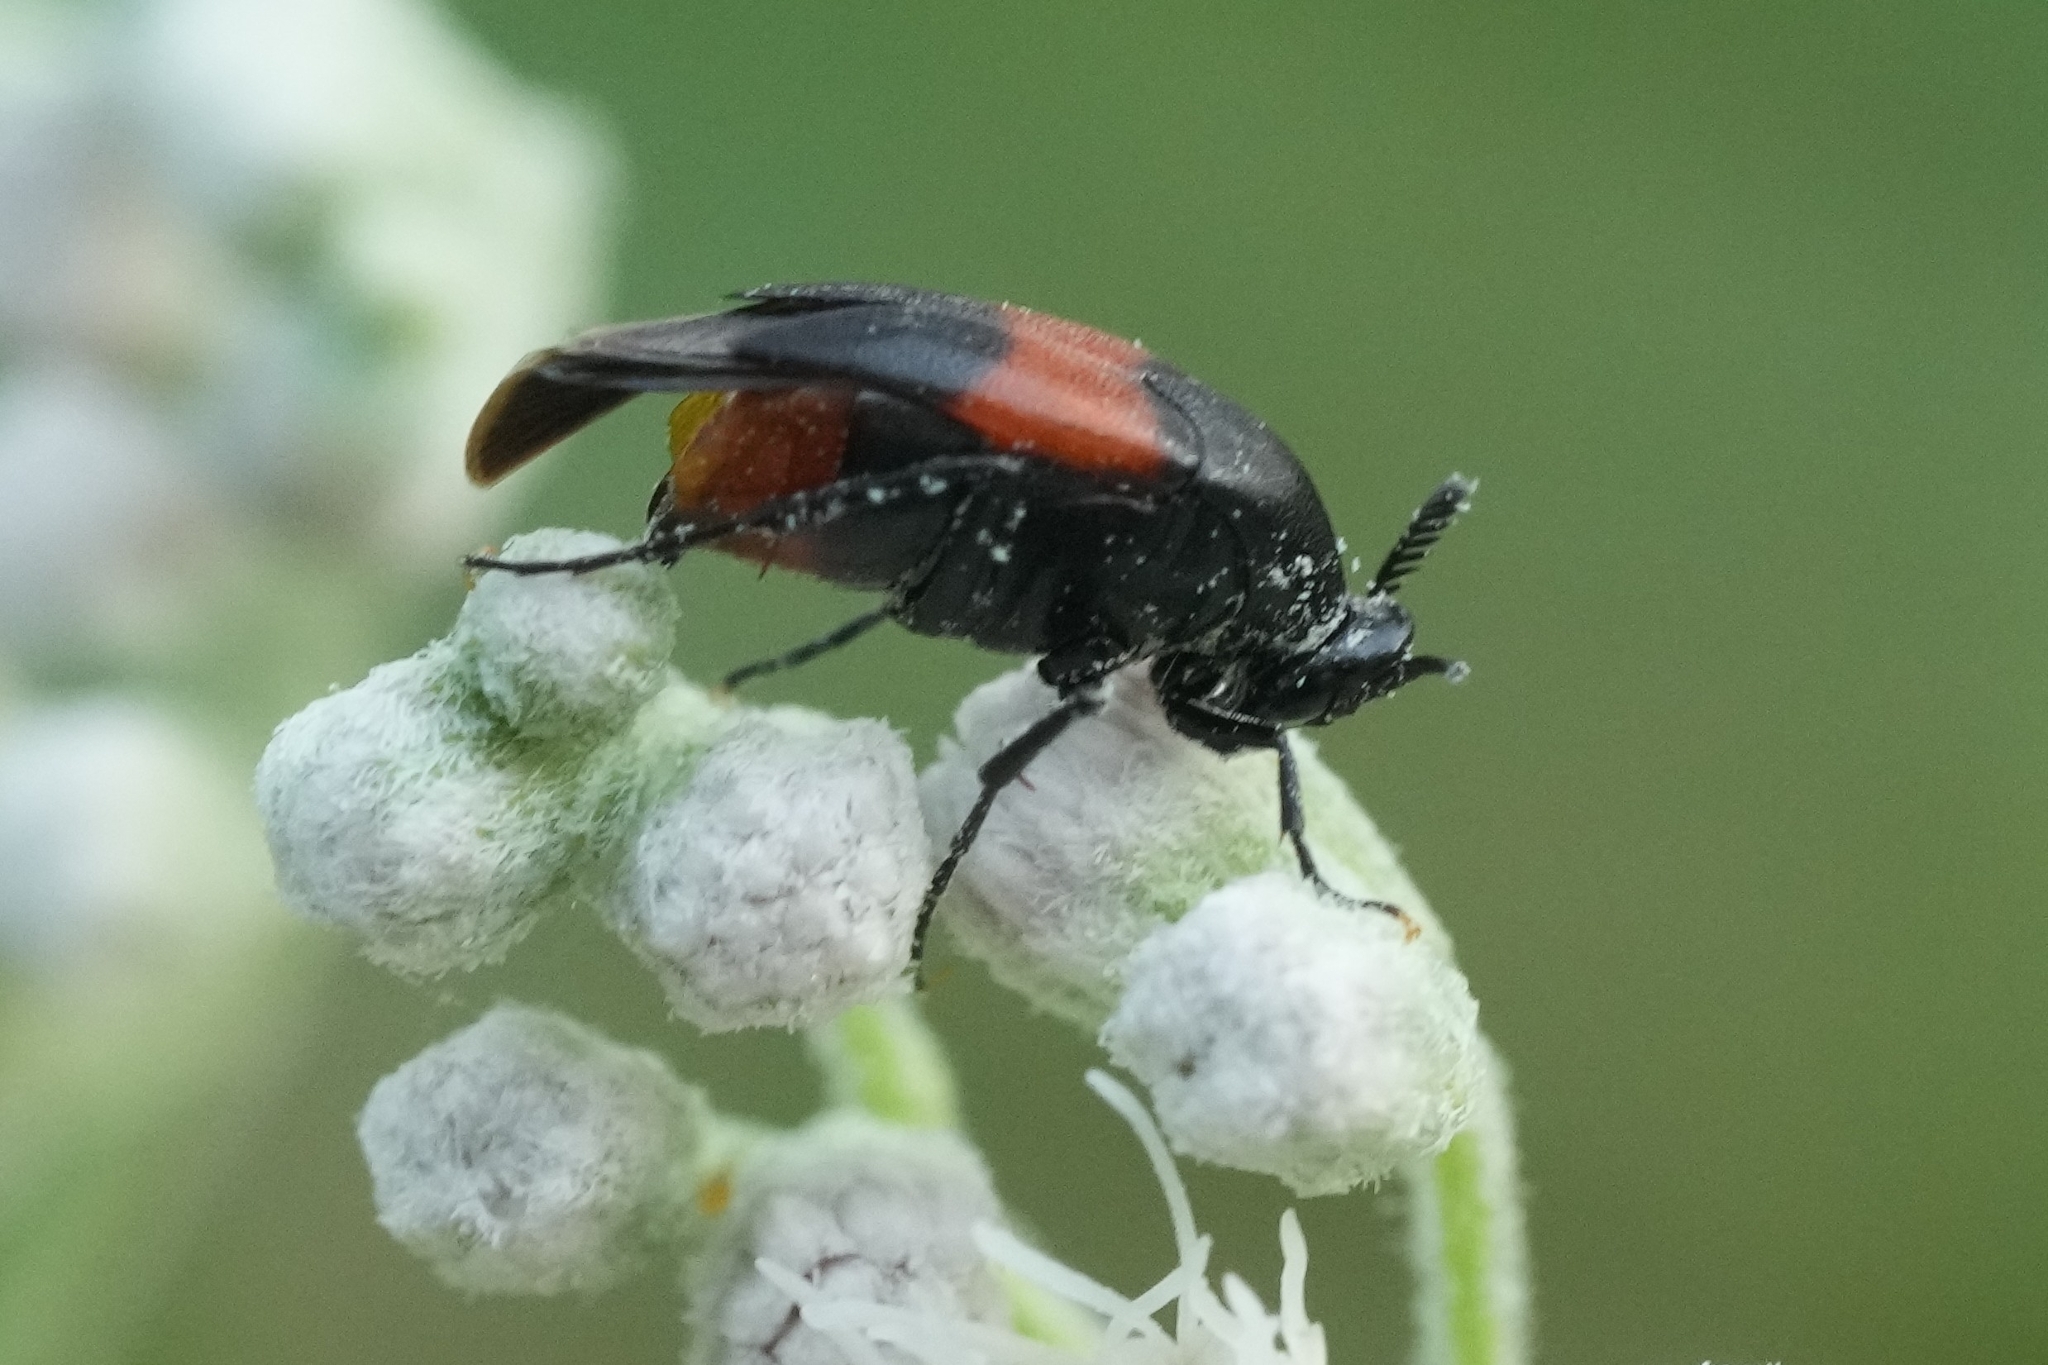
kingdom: Animalia
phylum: Arthropoda
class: Insecta
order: Coleoptera
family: Ripiphoridae
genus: Macrosiagon
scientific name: Macrosiagon cruentum
